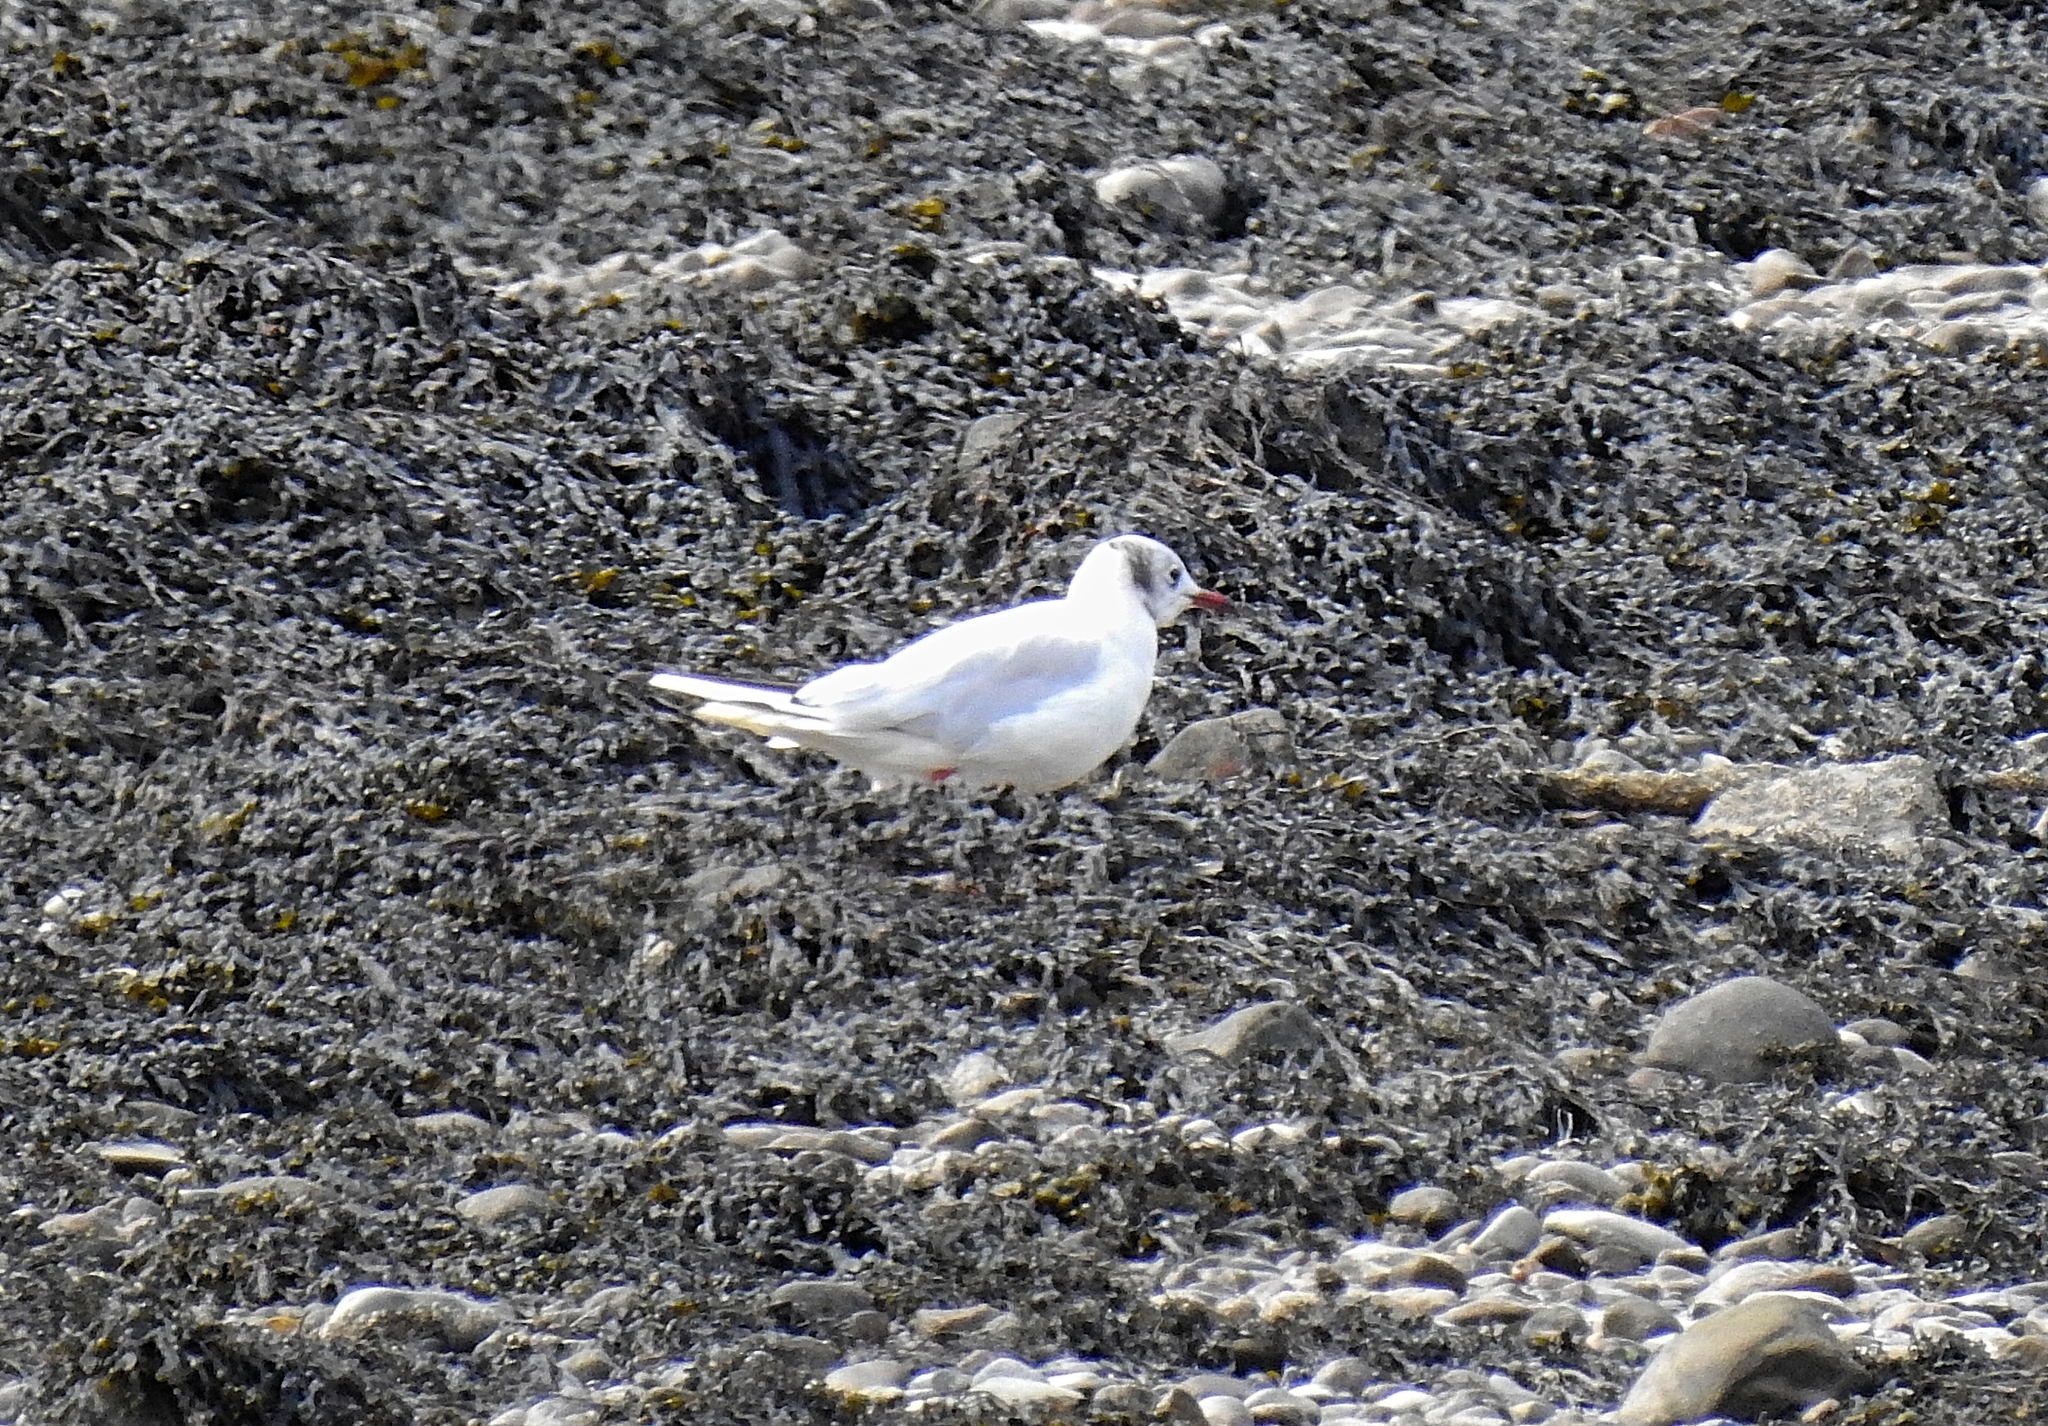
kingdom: Animalia
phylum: Chordata
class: Aves
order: Charadriiformes
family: Laridae
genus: Chroicocephalus
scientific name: Chroicocephalus ridibundus
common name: Black-headed gull
